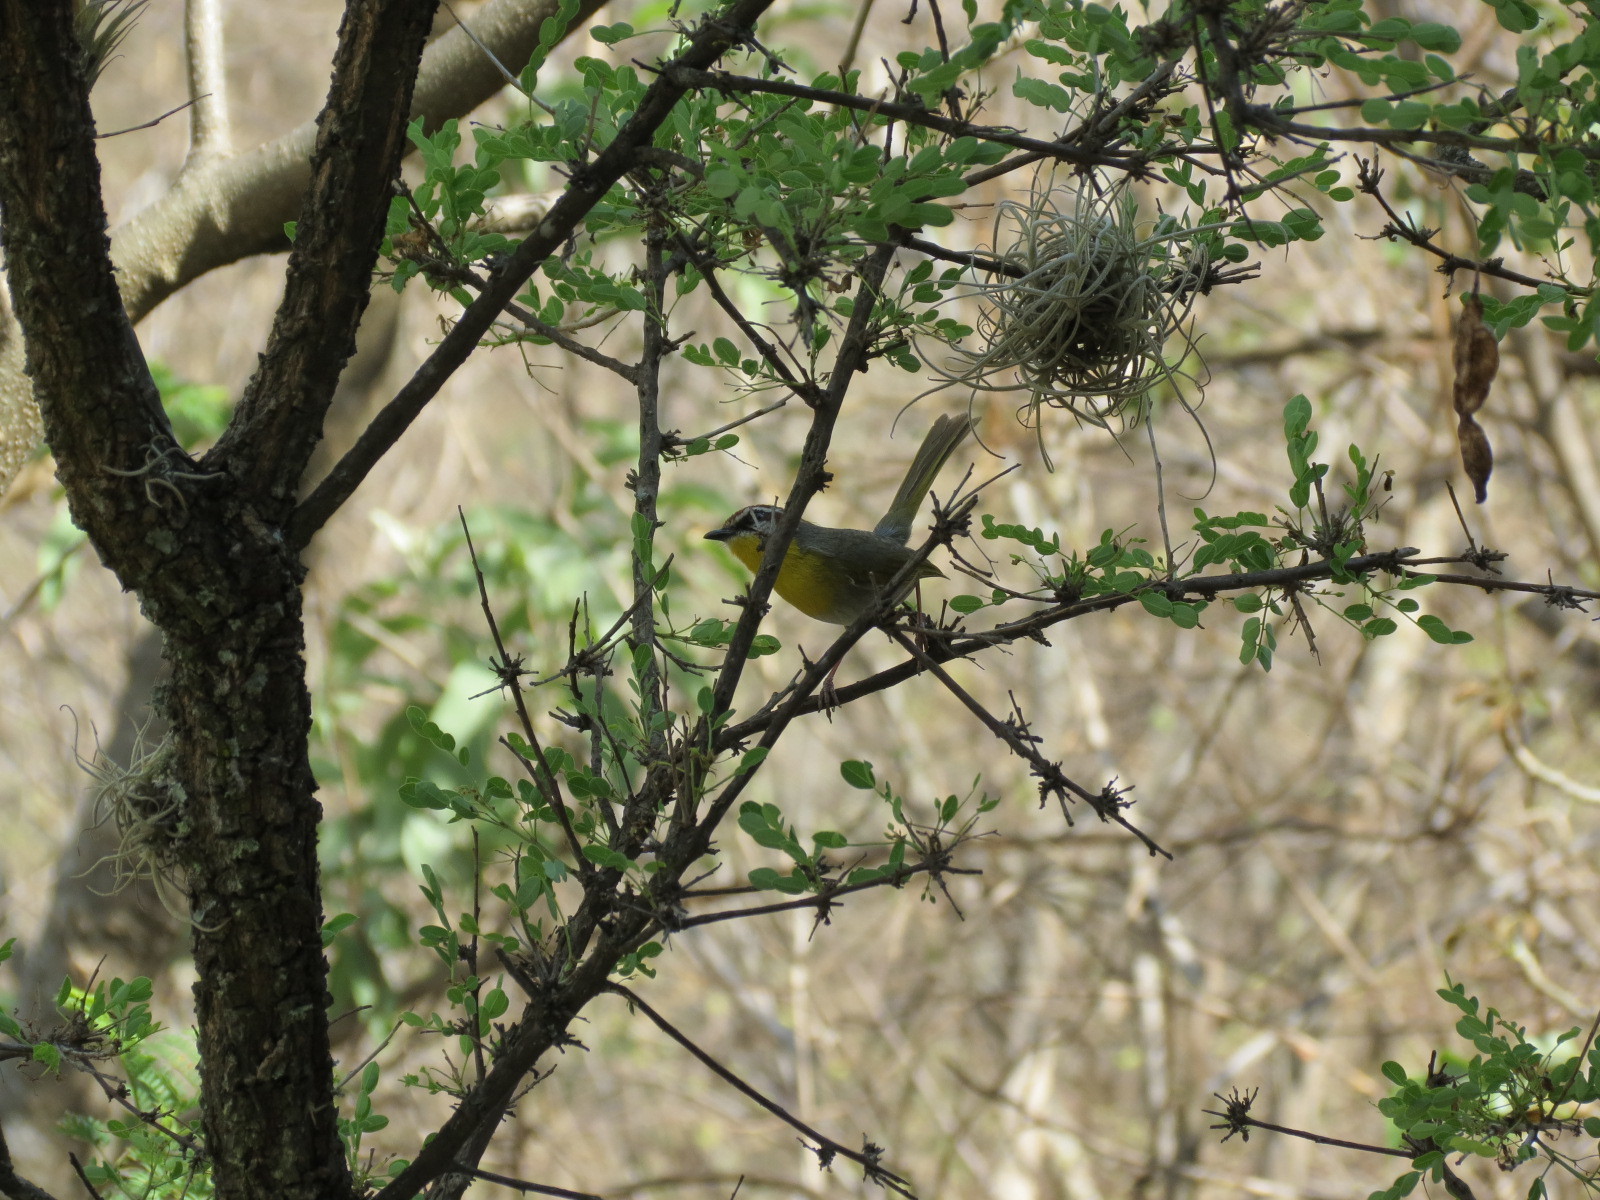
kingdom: Animalia
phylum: Chordata
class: Aves
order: Passeriformes
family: Parulidae
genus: Basileuterus
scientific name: Basileuterus rufifrons
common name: Rufous-capped warbler
